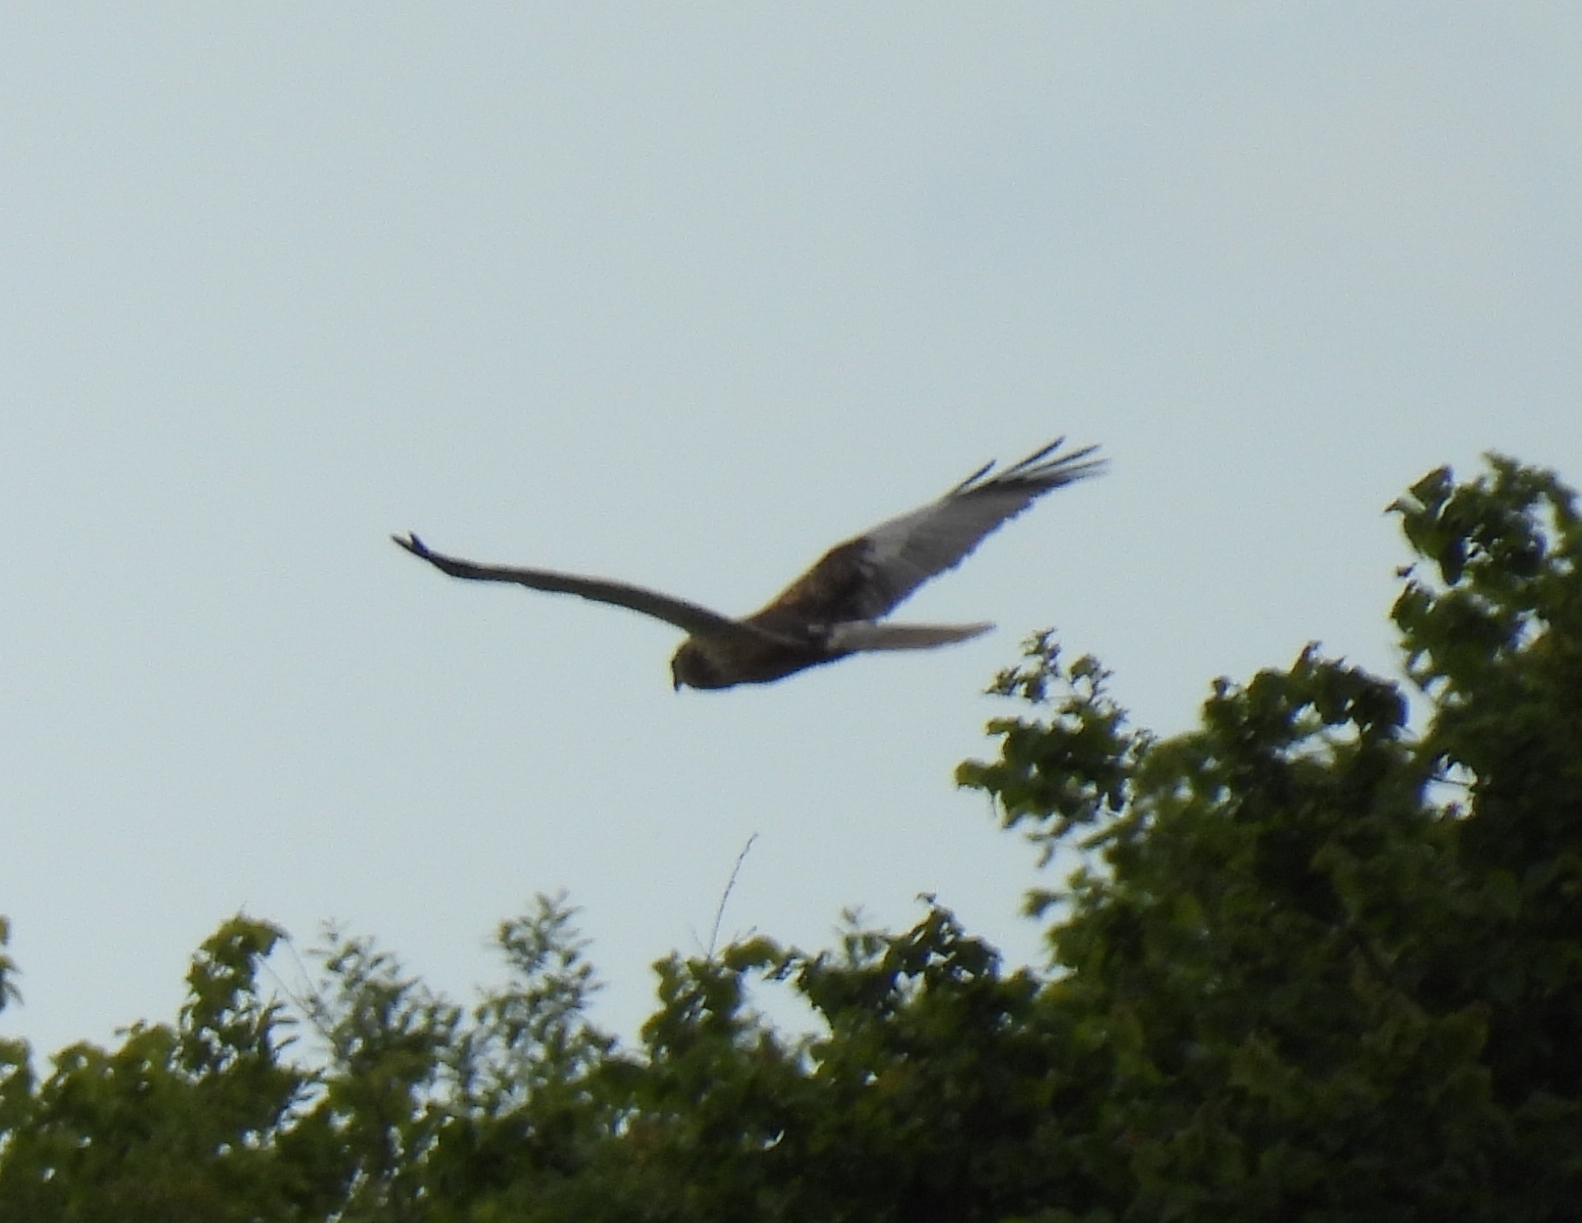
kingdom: Animalia
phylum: Chordata
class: Aves
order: Accipitriformes
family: Accipitridae
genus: Circus
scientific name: Circus aeruginosus
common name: Western marsh harrier
